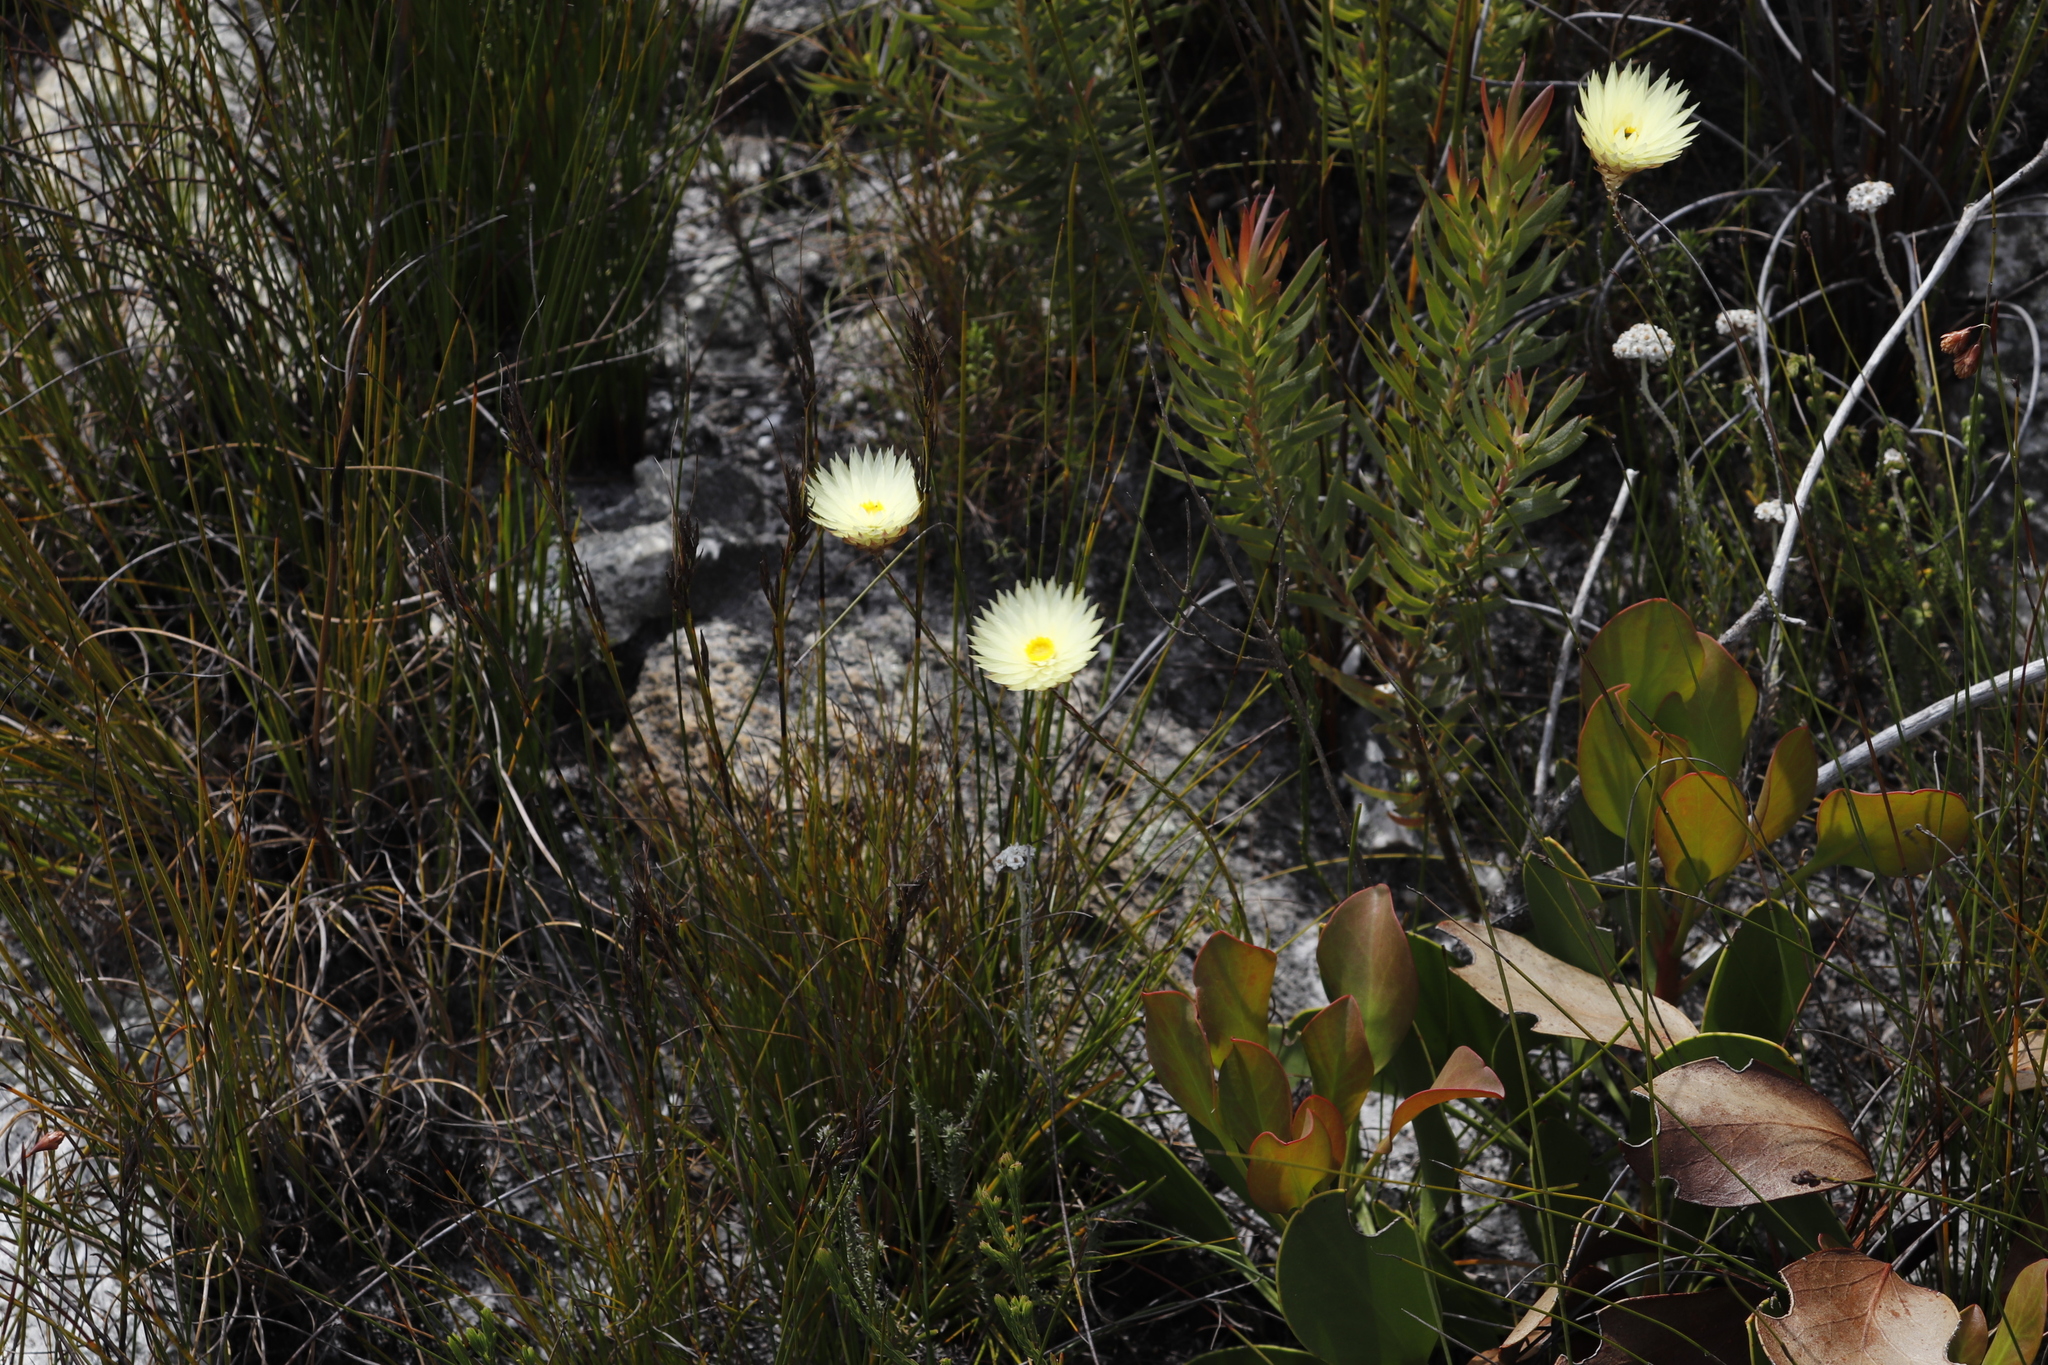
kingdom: Plantae
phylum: Tracheophyta
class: Magnoliopsida
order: Asterales
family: Asteraceae
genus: Edmondia
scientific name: Edmondia sesamoides
